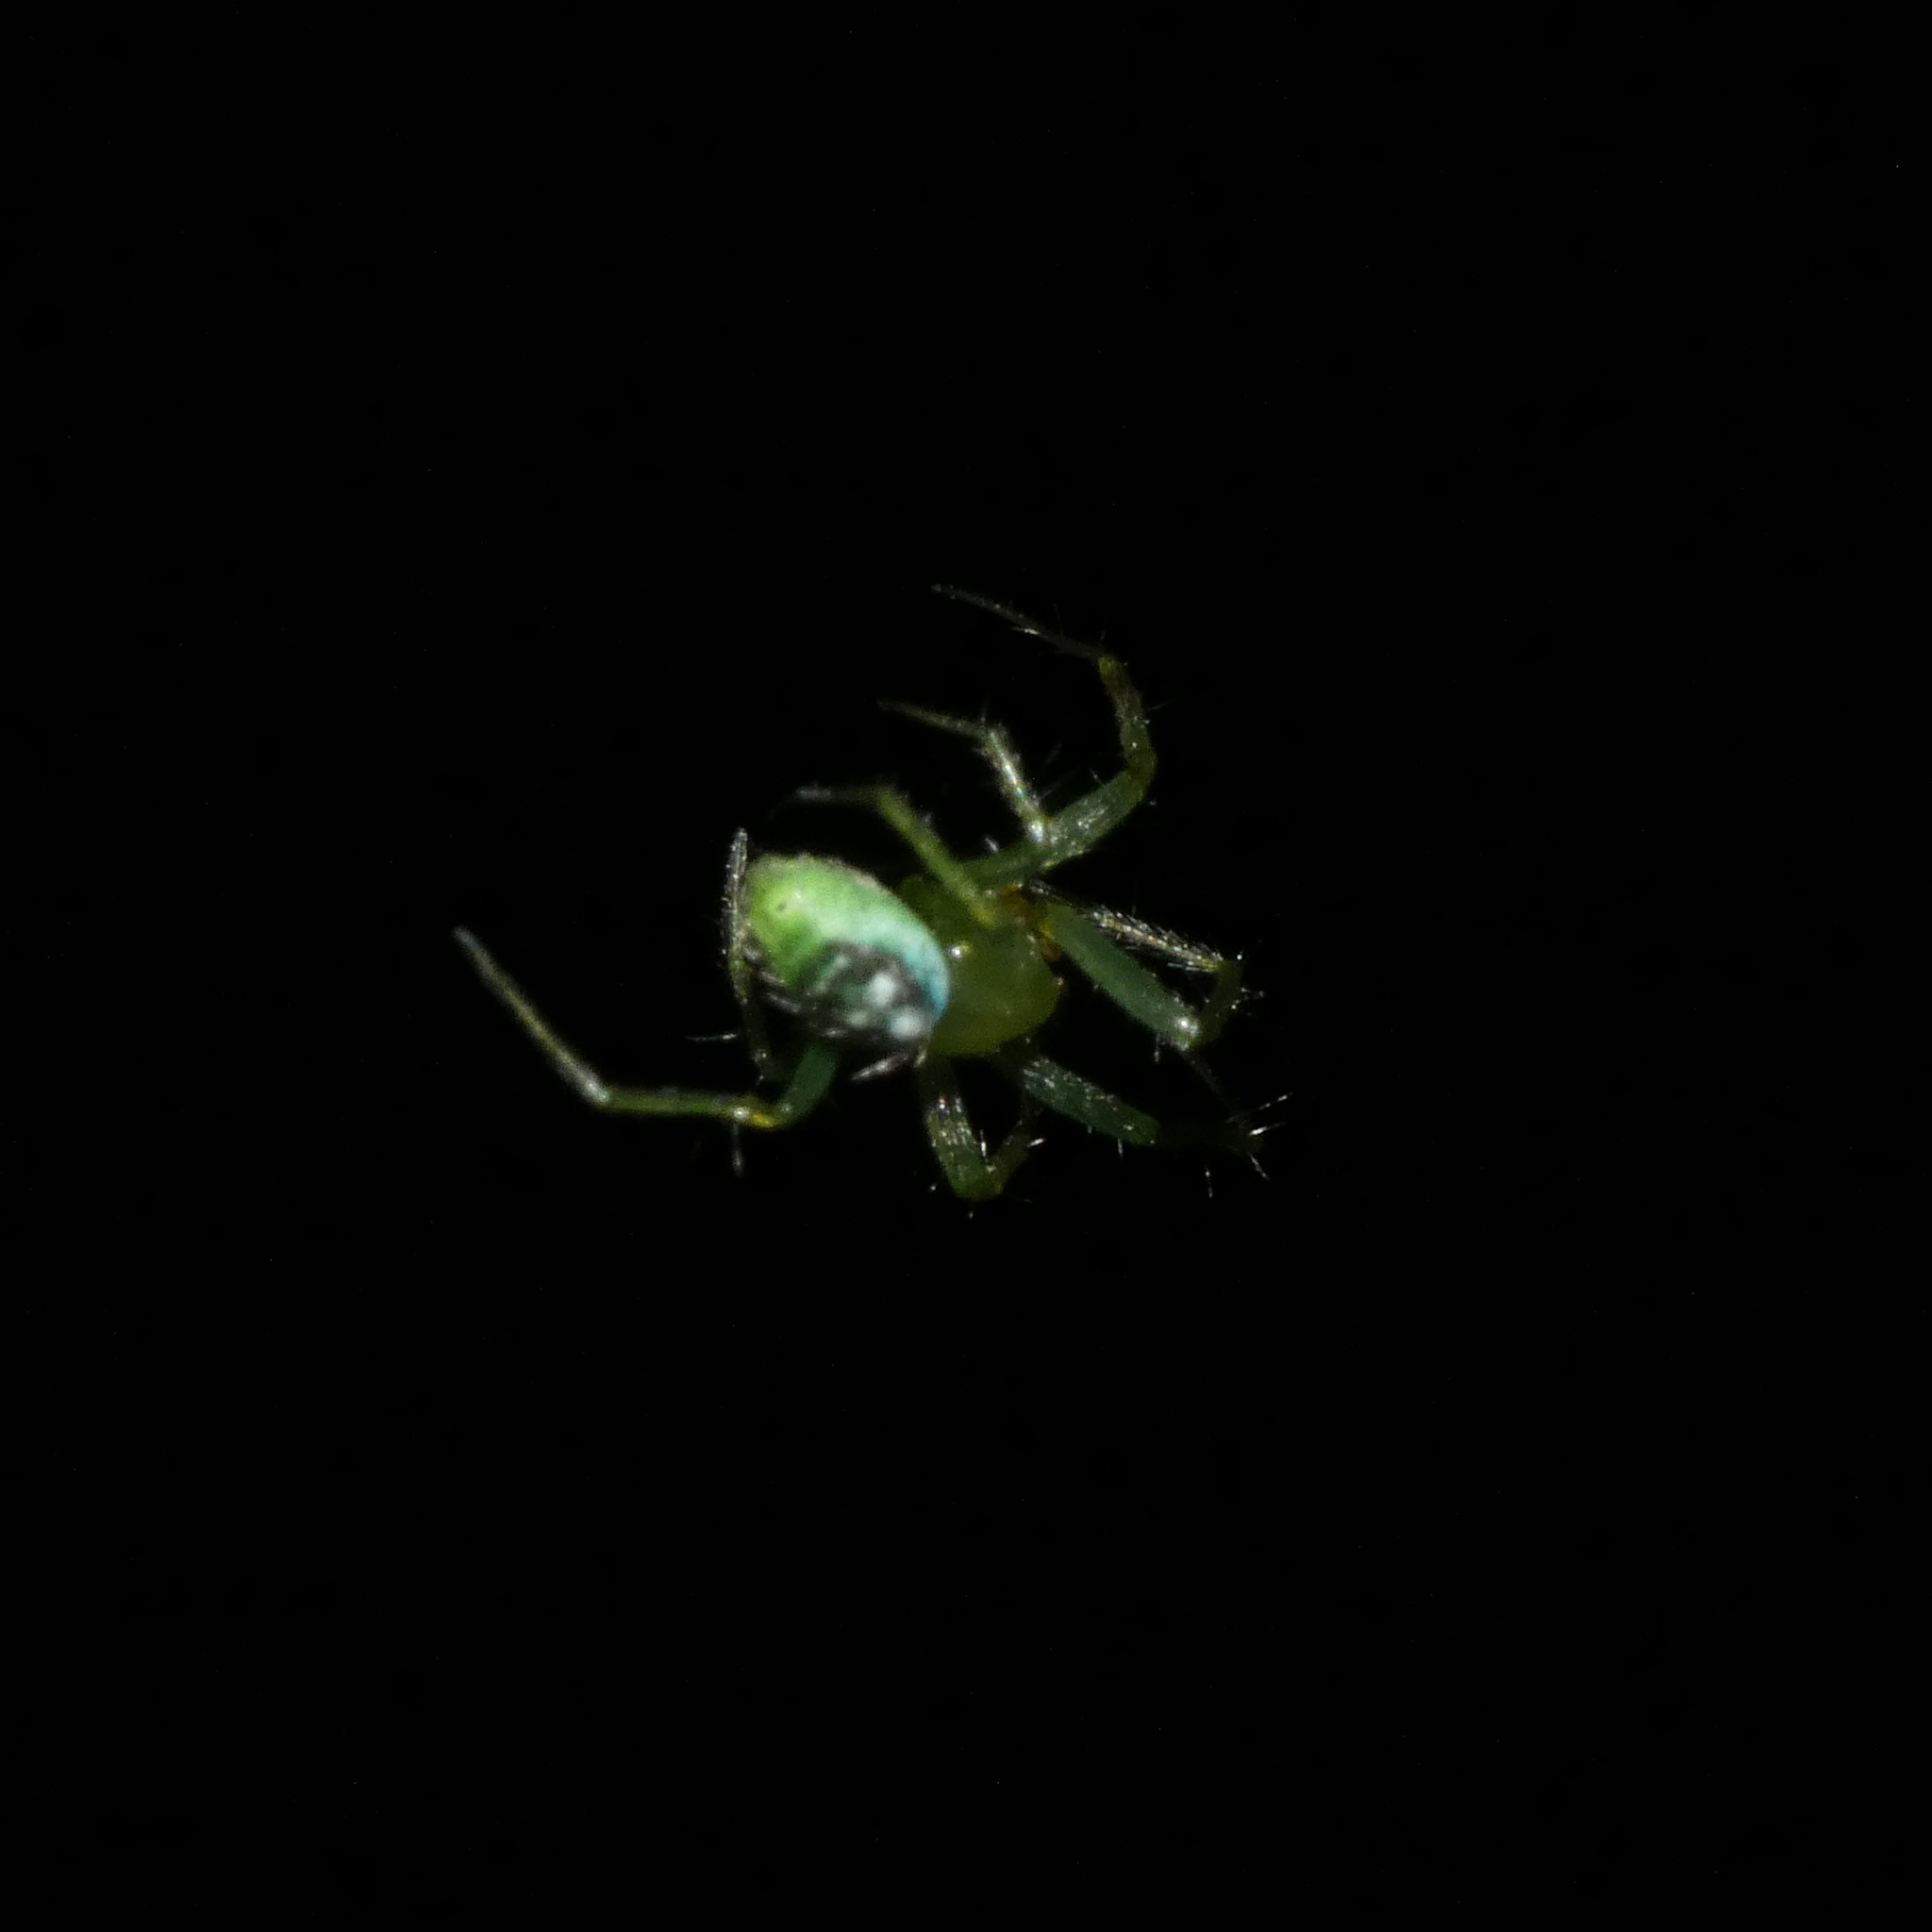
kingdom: Animalia
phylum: Arthropoda
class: Arachnida
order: Araneae
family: Araneidae
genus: Prasonica
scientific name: Prasonica nigrotaeniata
